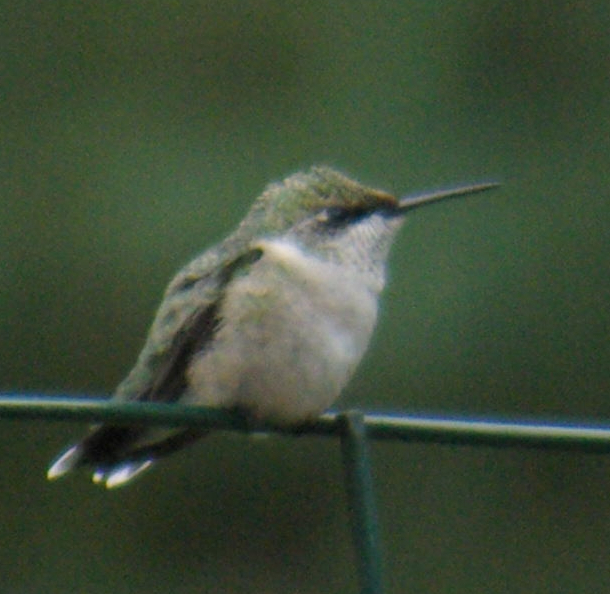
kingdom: Animalia
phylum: Chordata
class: Aves
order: Apodiformes
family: Trochilidae
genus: Archilochus
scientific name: Archilochus colubris
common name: Ruby-throated hummingbird
